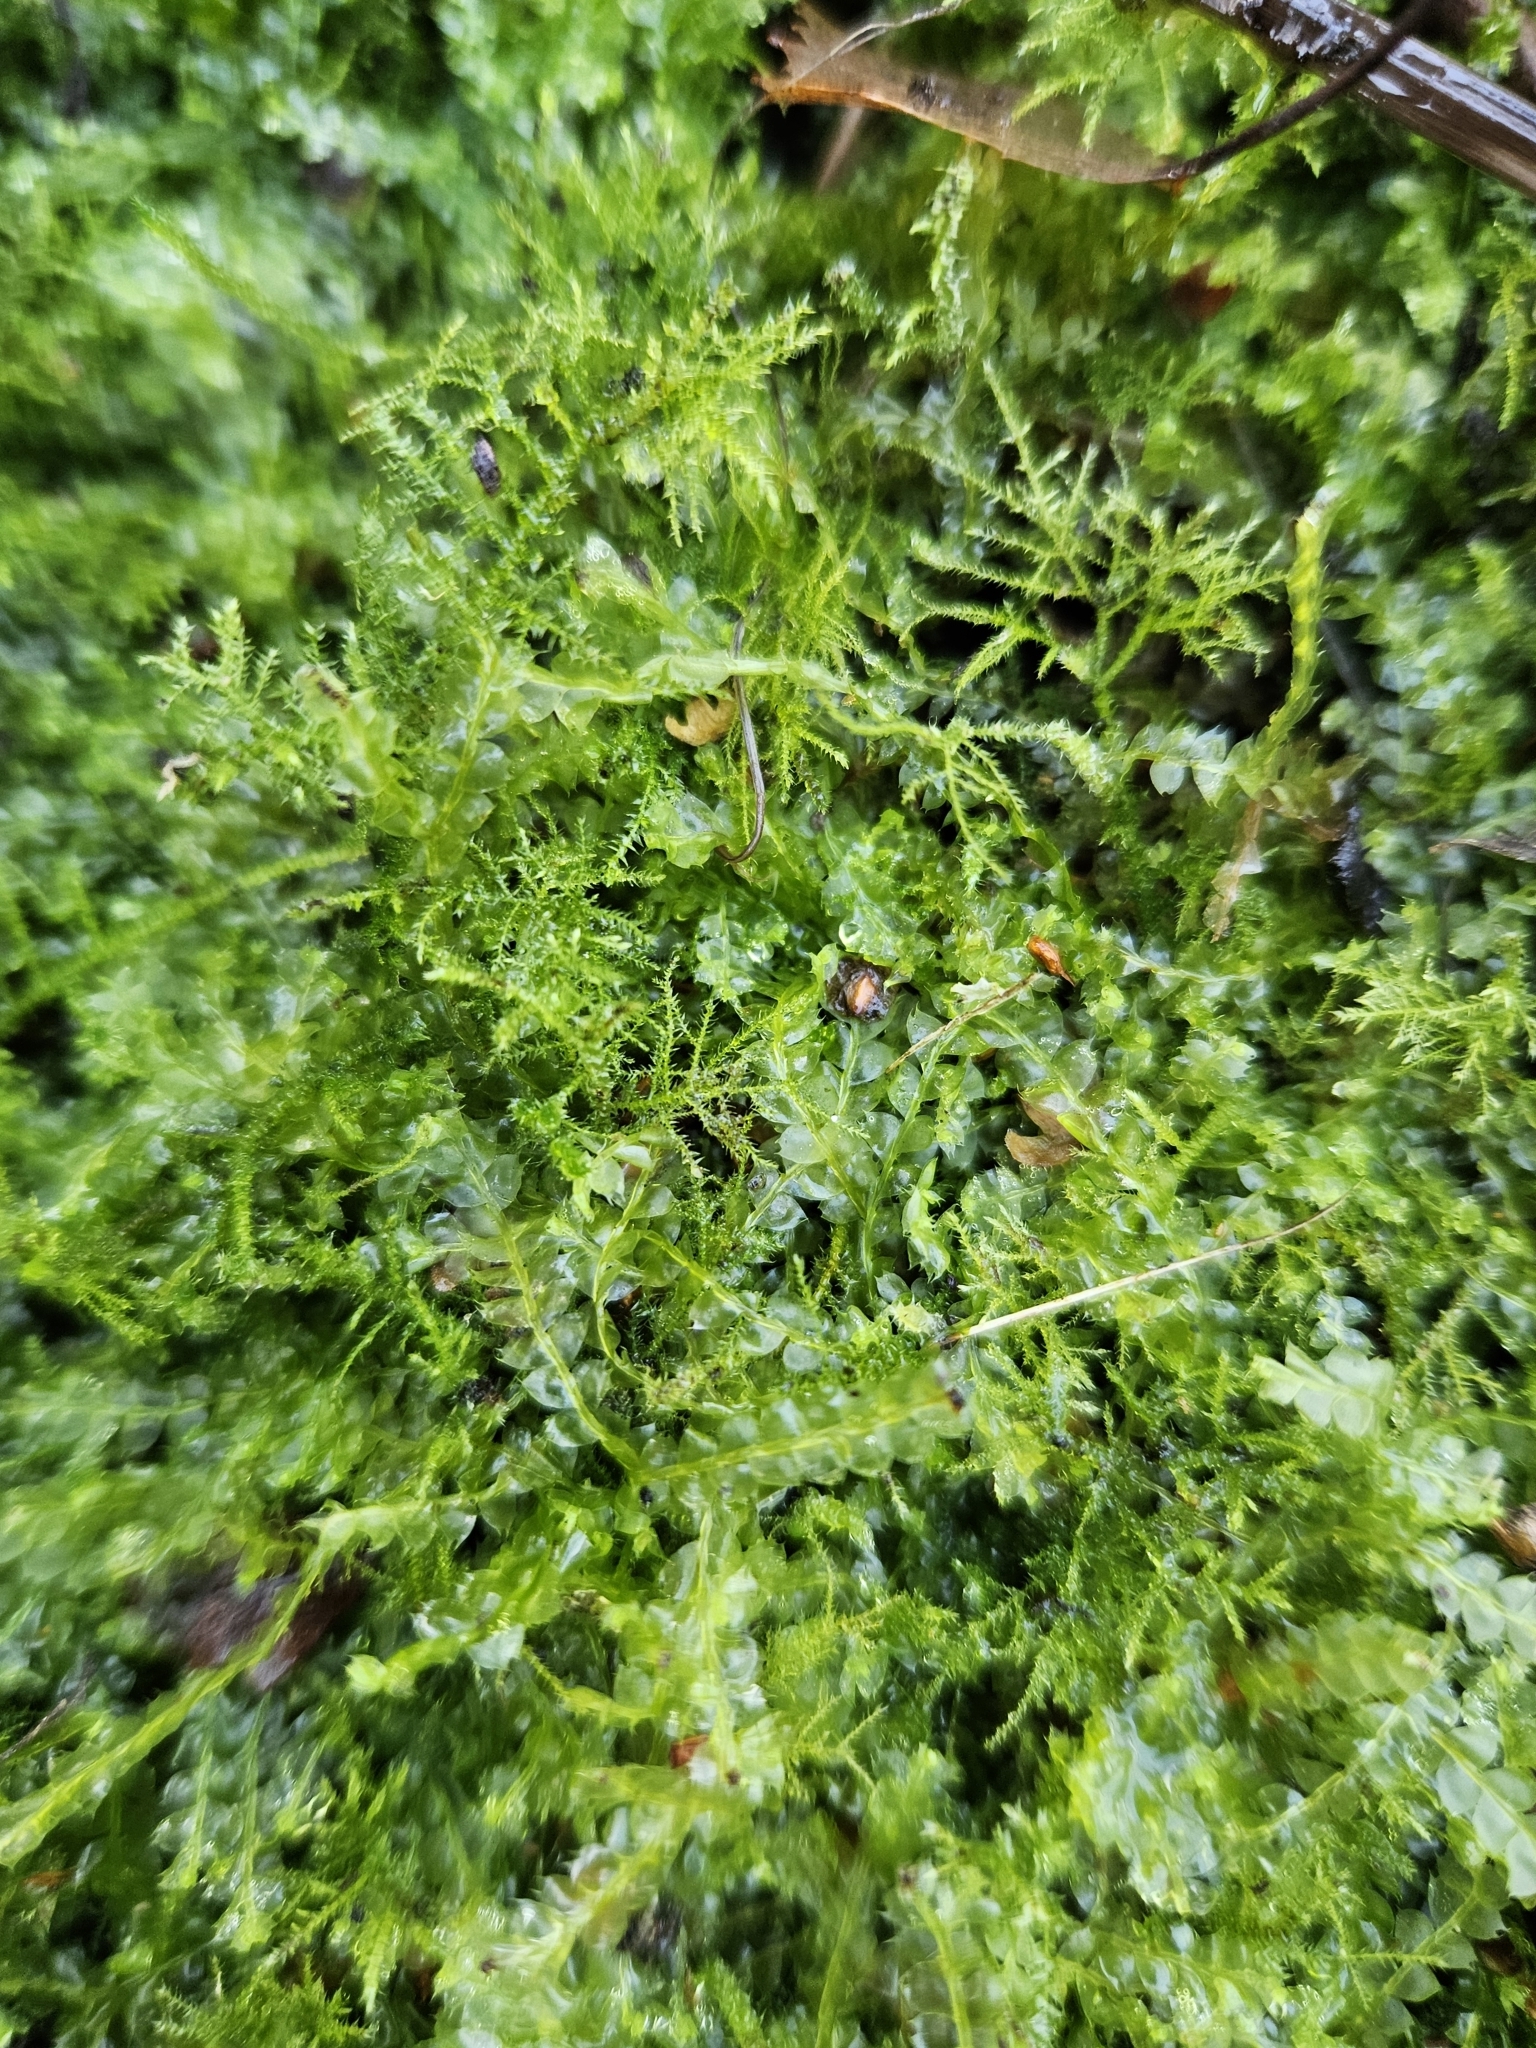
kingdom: Plantae
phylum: Marchantiophyta
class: Jungermanniopsida
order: Jungermanniales
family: Lophocoleaceae
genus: Lophocolea
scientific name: Lophocolea bidentata
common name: Bifid crestwort
